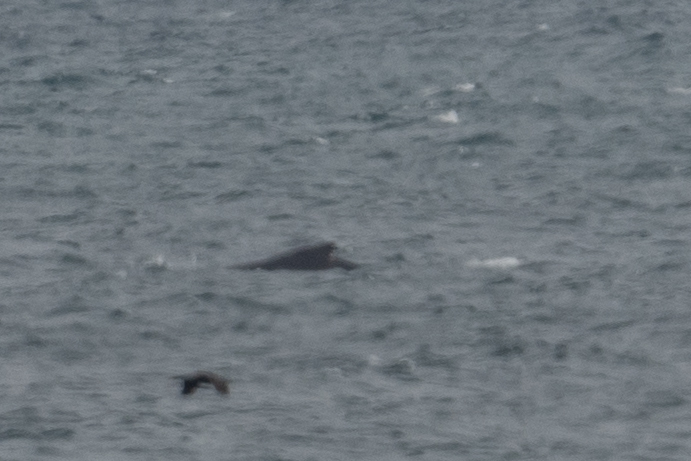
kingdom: Animalia
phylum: Chordata
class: Mammalia
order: Cetacea
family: Balaenopteridae
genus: Megaptera
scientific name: Megaptera novaeangliae
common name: Humpback whale
